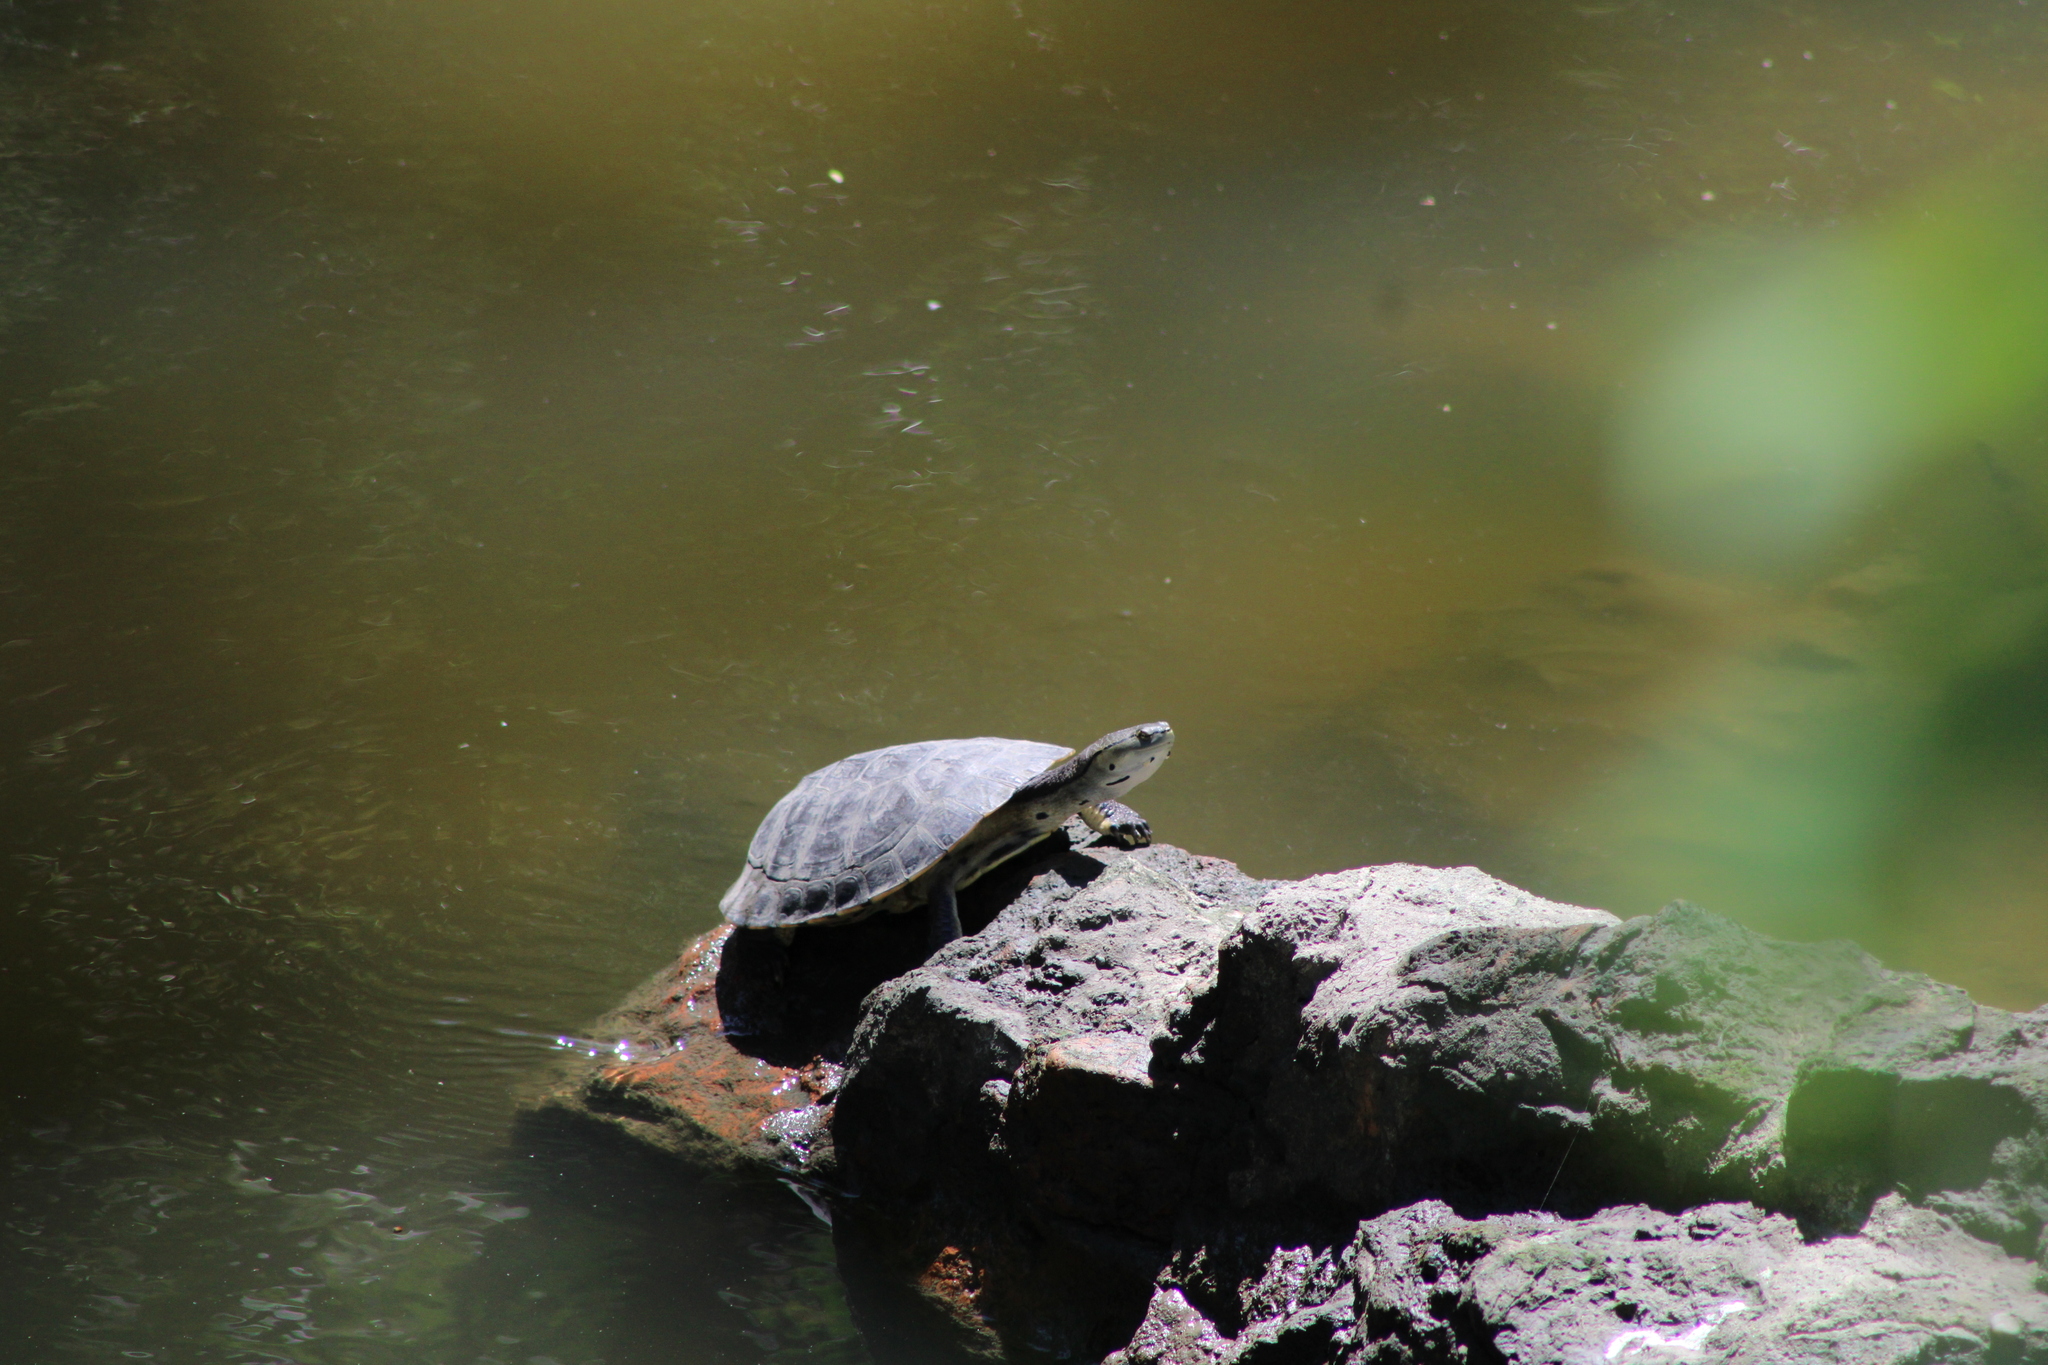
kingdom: Animalia
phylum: Chordata
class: Testudines
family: Chelidae
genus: Phrynops
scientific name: Phrynops hilarii
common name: Side-necked turtle of saint hillaire
